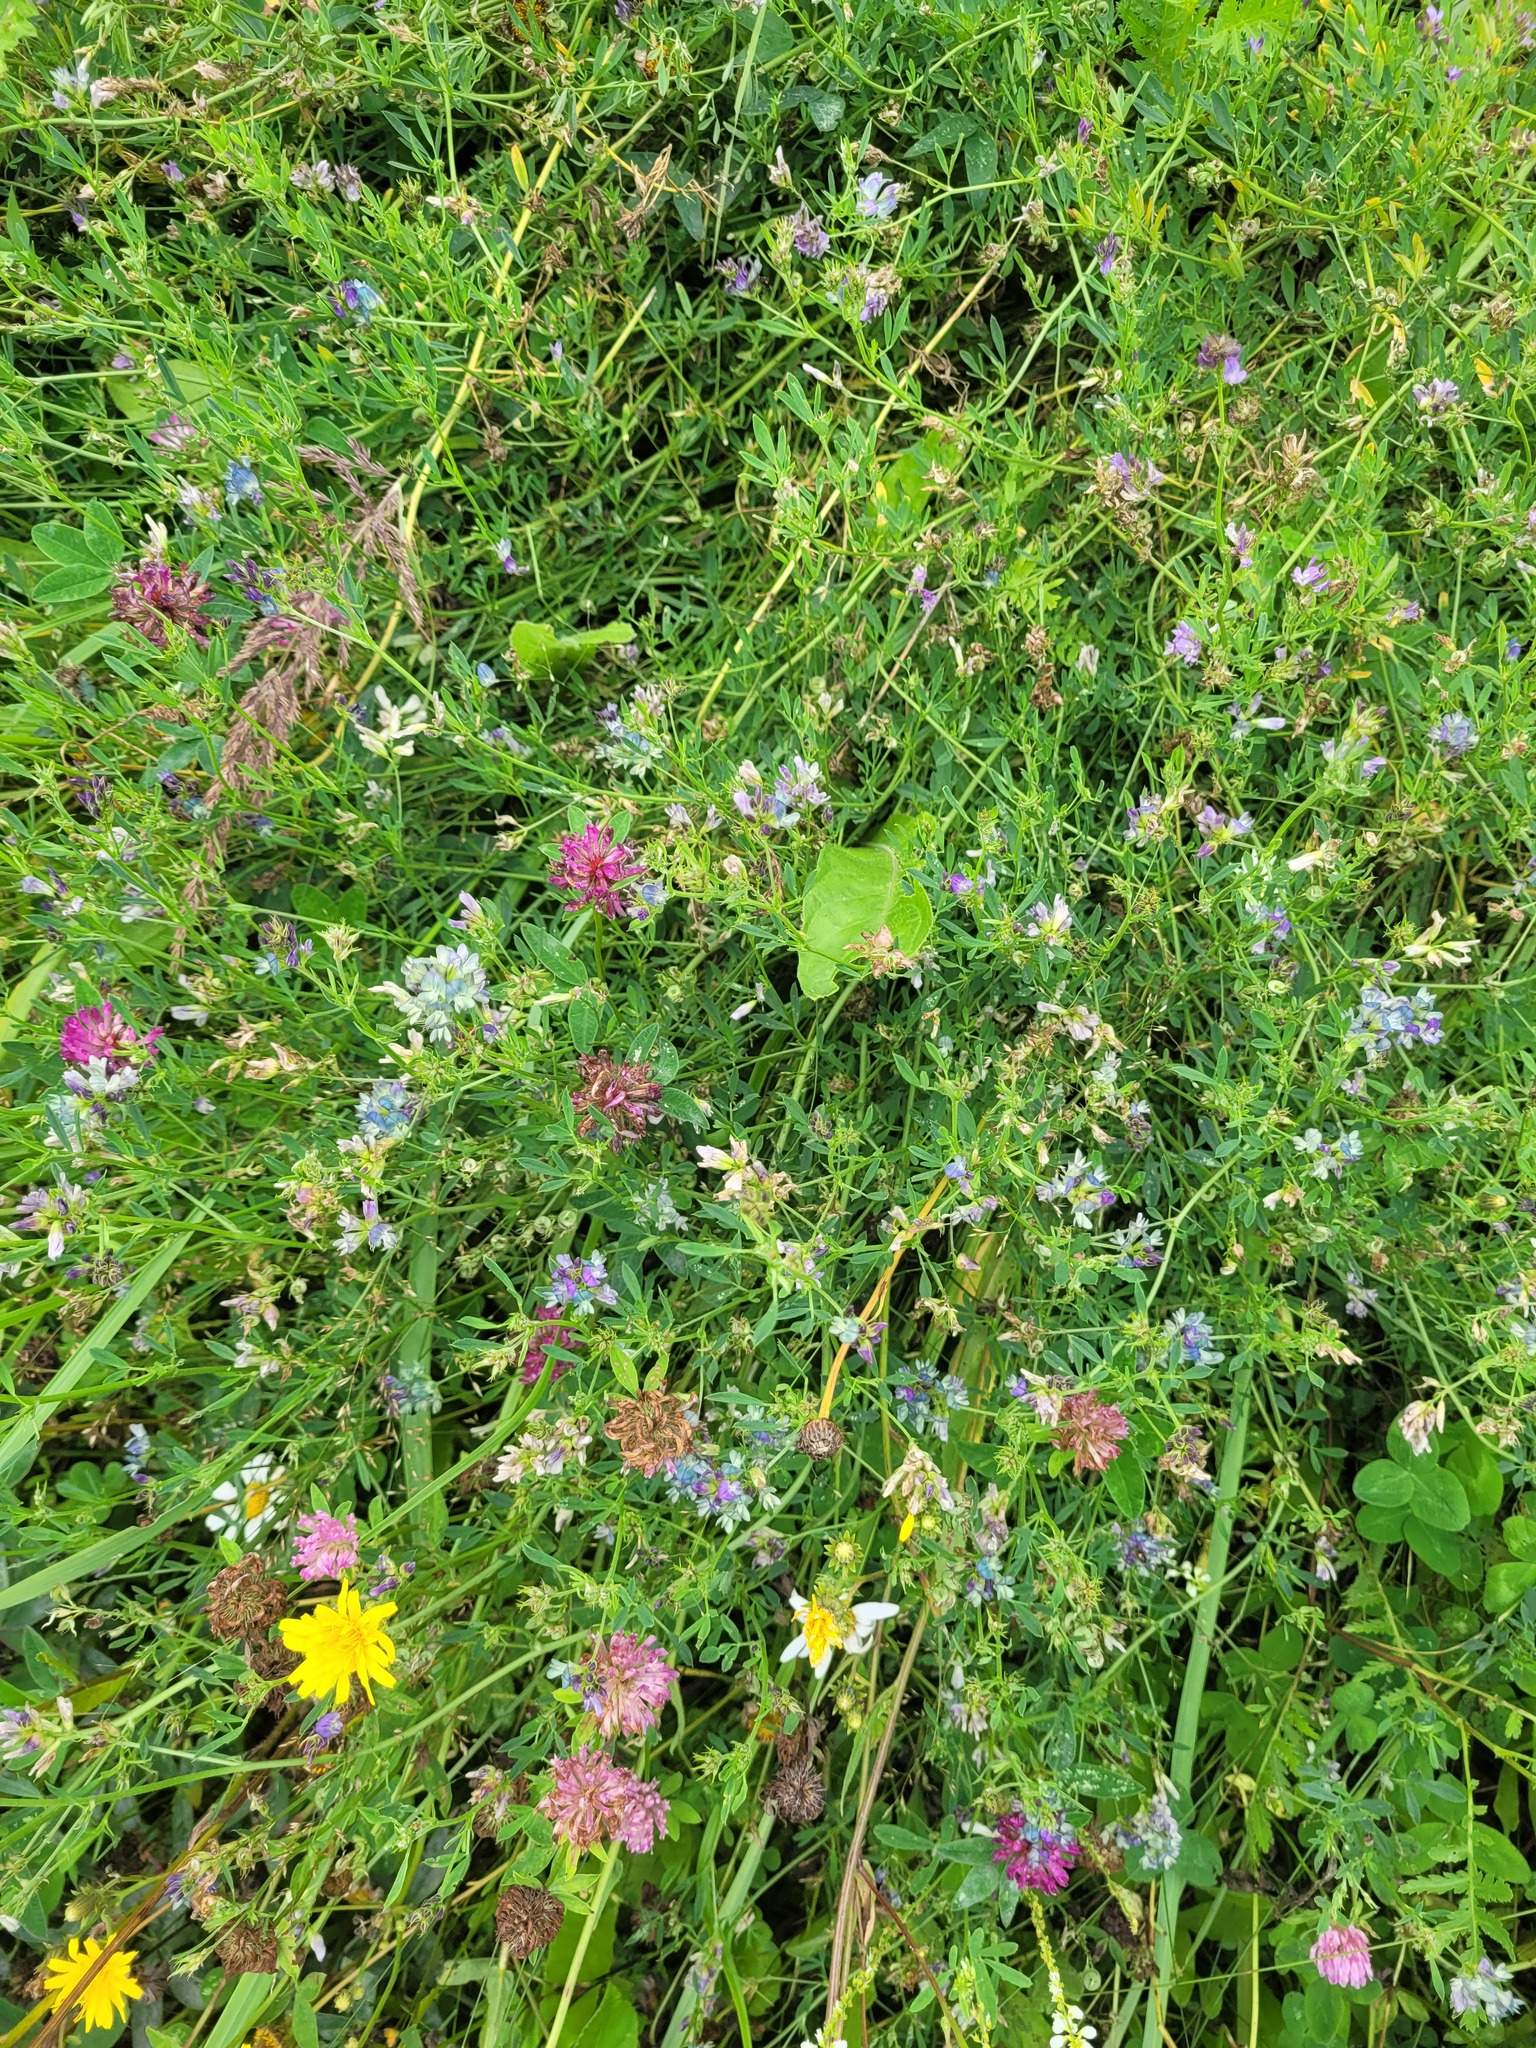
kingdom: Plantae
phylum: Tracheophyta
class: Magnoliopsida
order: Fabales
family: Fabaceae
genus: Medicago
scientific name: Medicago varia
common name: Sand lucerne
